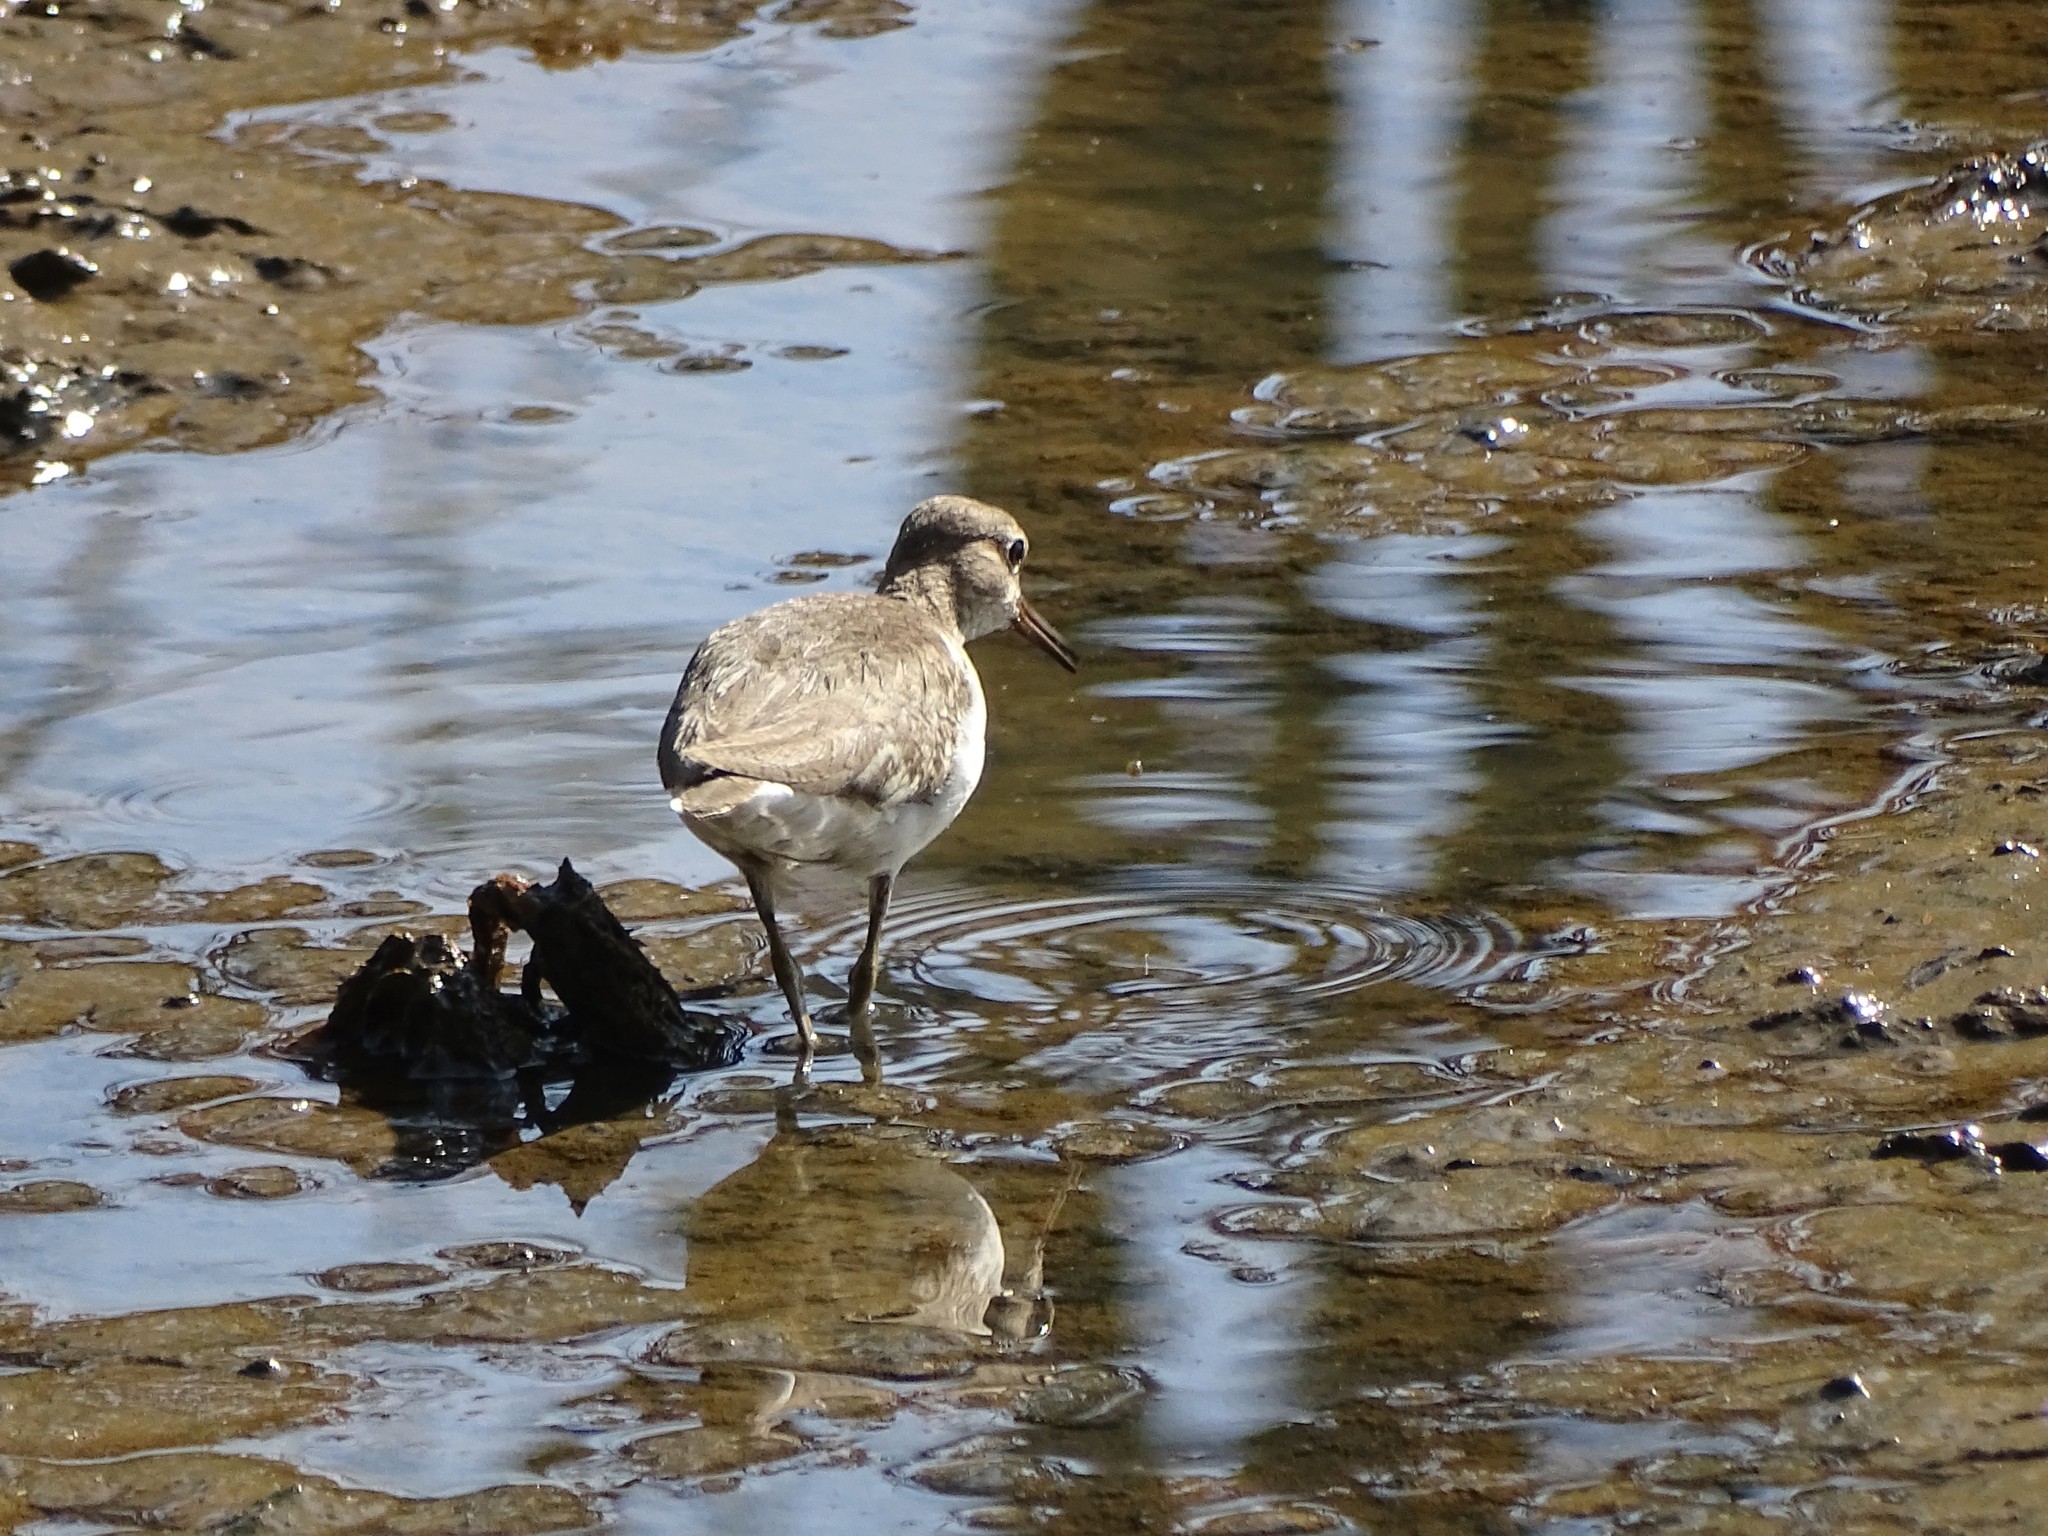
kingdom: Animalia
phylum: Chordata
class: Aves
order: Charadriiformes
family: Scolopacidae
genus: Actitis
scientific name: Actitis hypoleucos
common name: Common sandpiper
